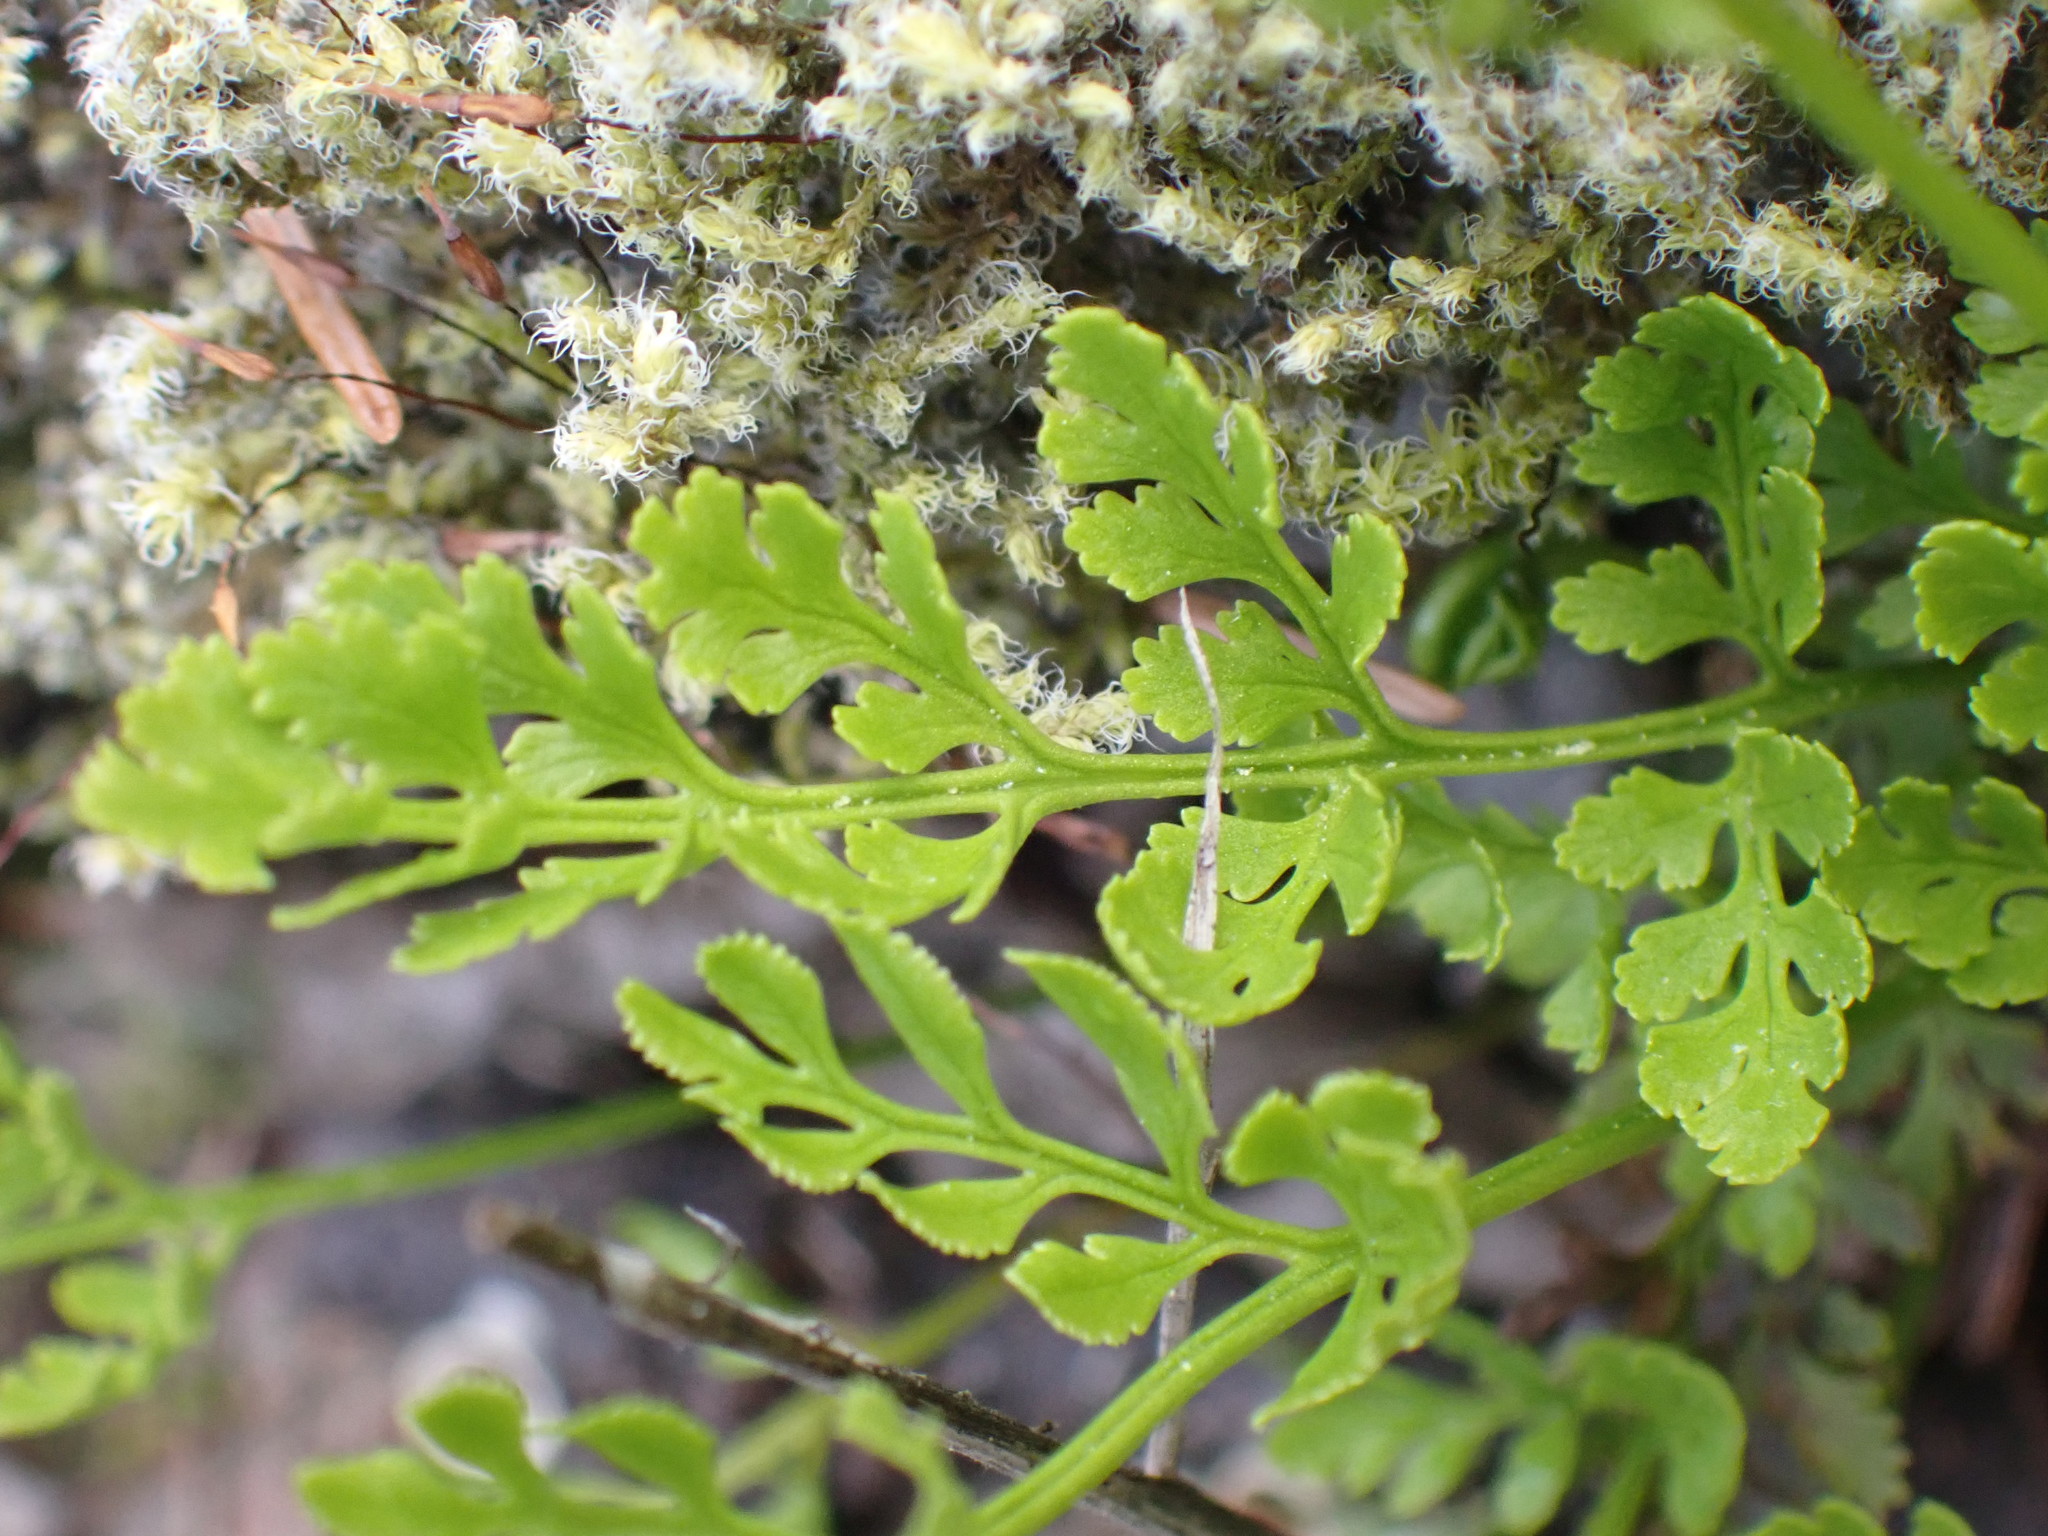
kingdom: Plantae
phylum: Tracheophyta
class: Polypodiopsida
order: Polypodiales
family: Pteridaceae
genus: Cryptogramma
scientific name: Cryptogramma acrostichoides
